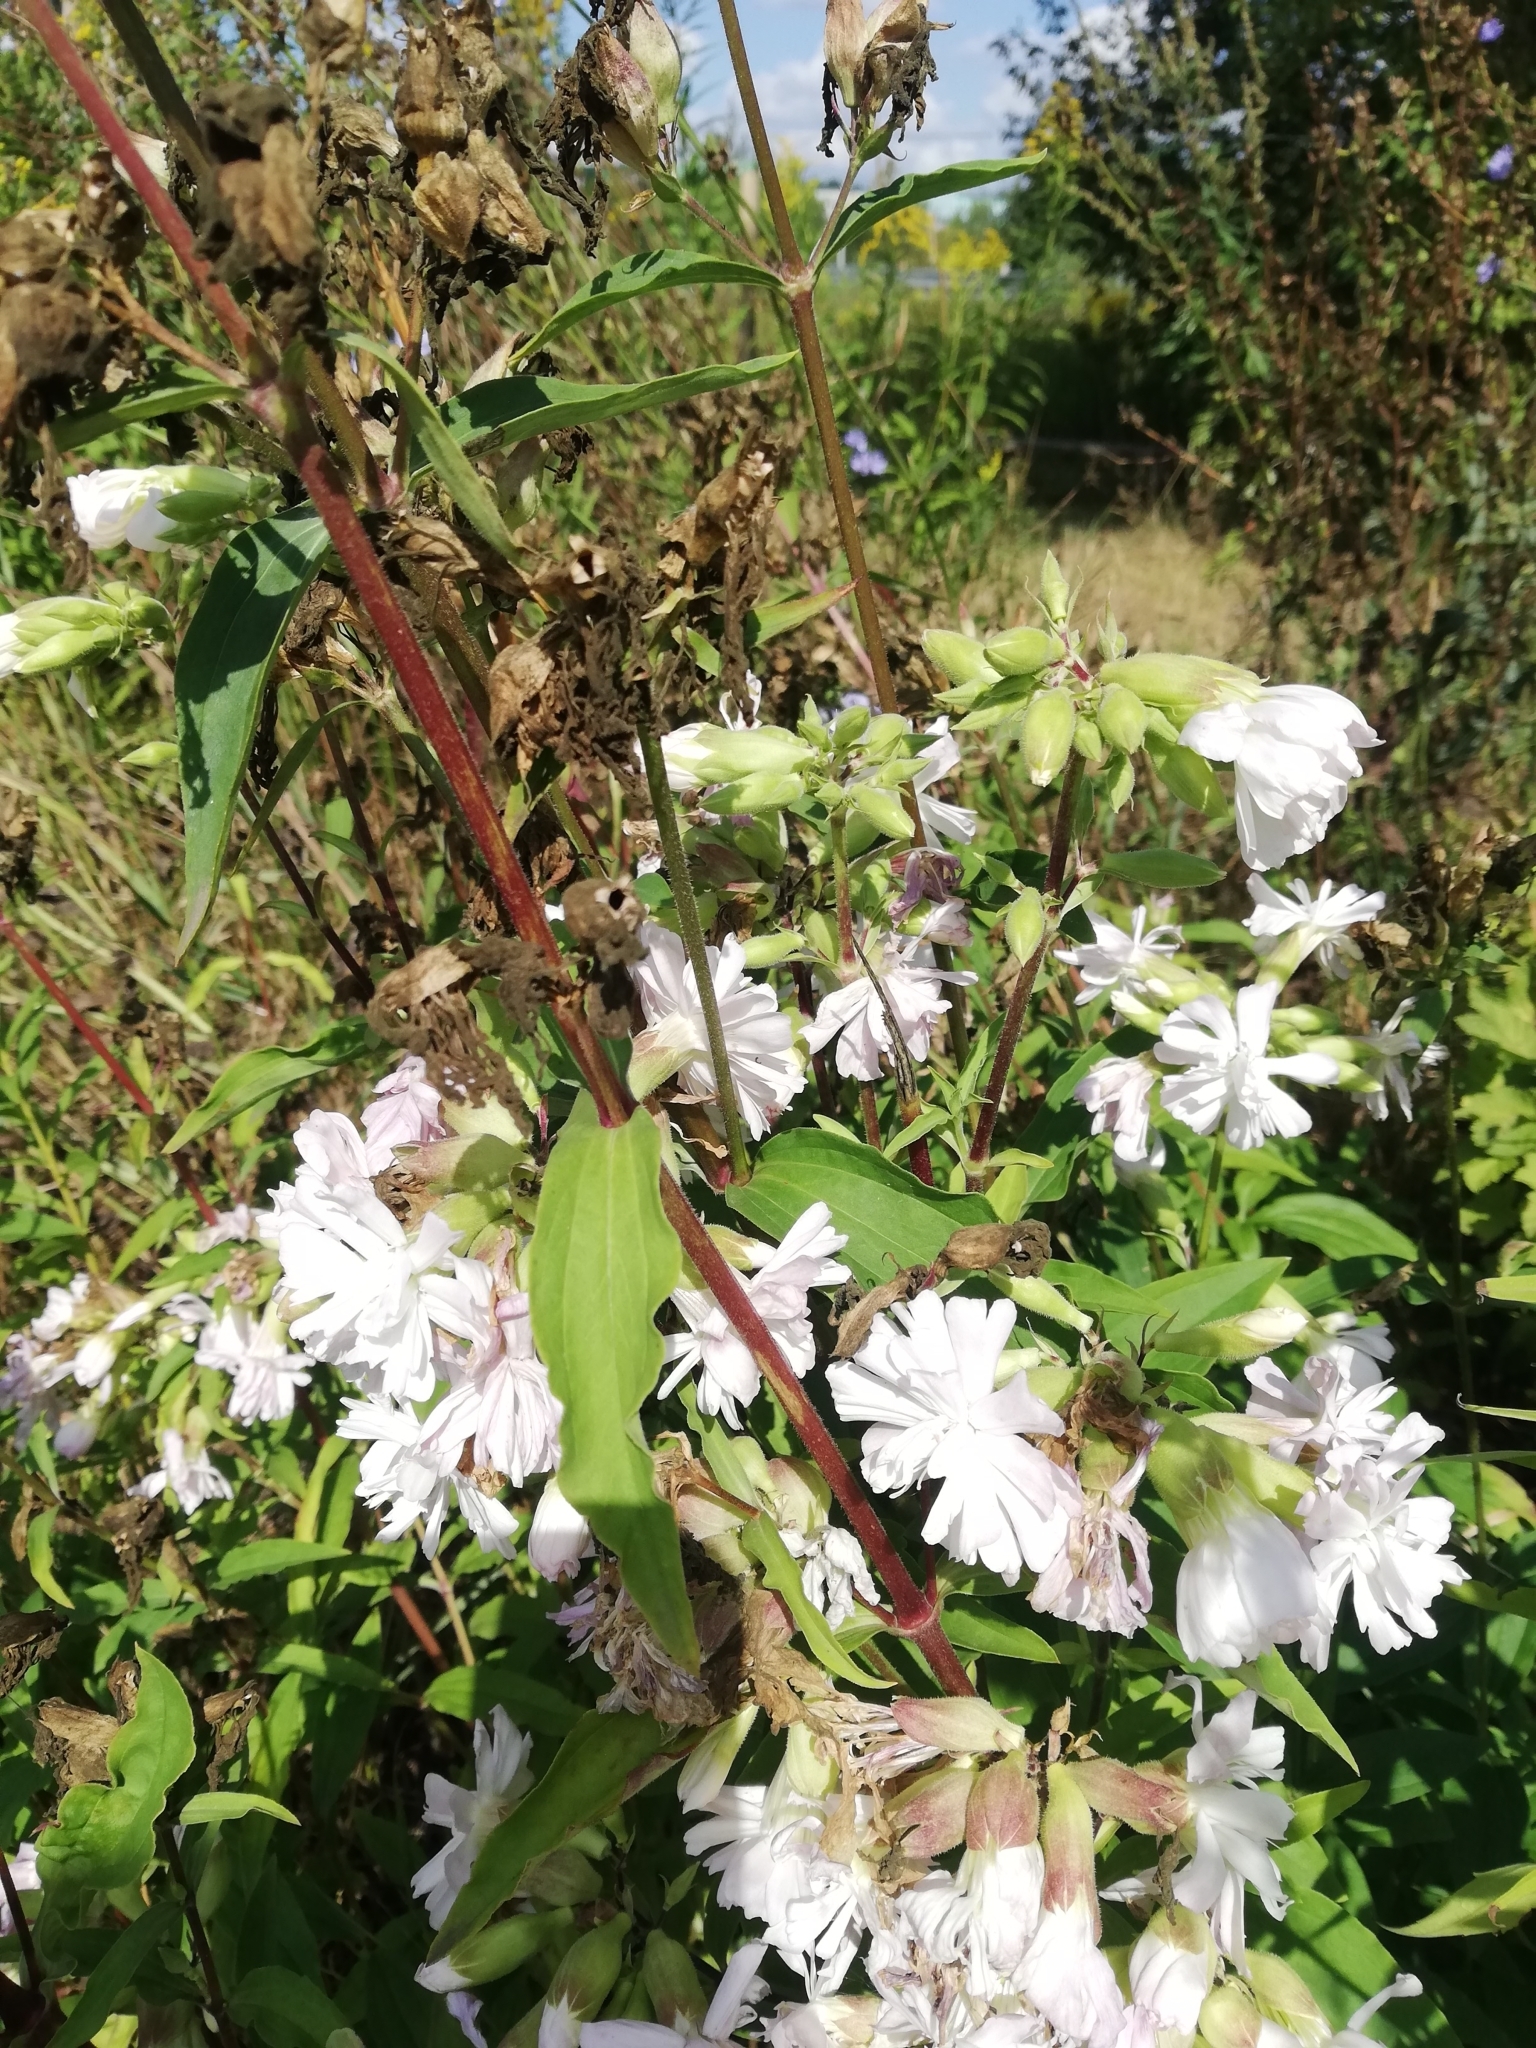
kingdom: Plantae
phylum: Tracheophyta
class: Magnoliopsida
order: Caryophyllales
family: Caryophyllaceae
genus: Saponaria
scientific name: Saponaria officinalis
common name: Soapwort
